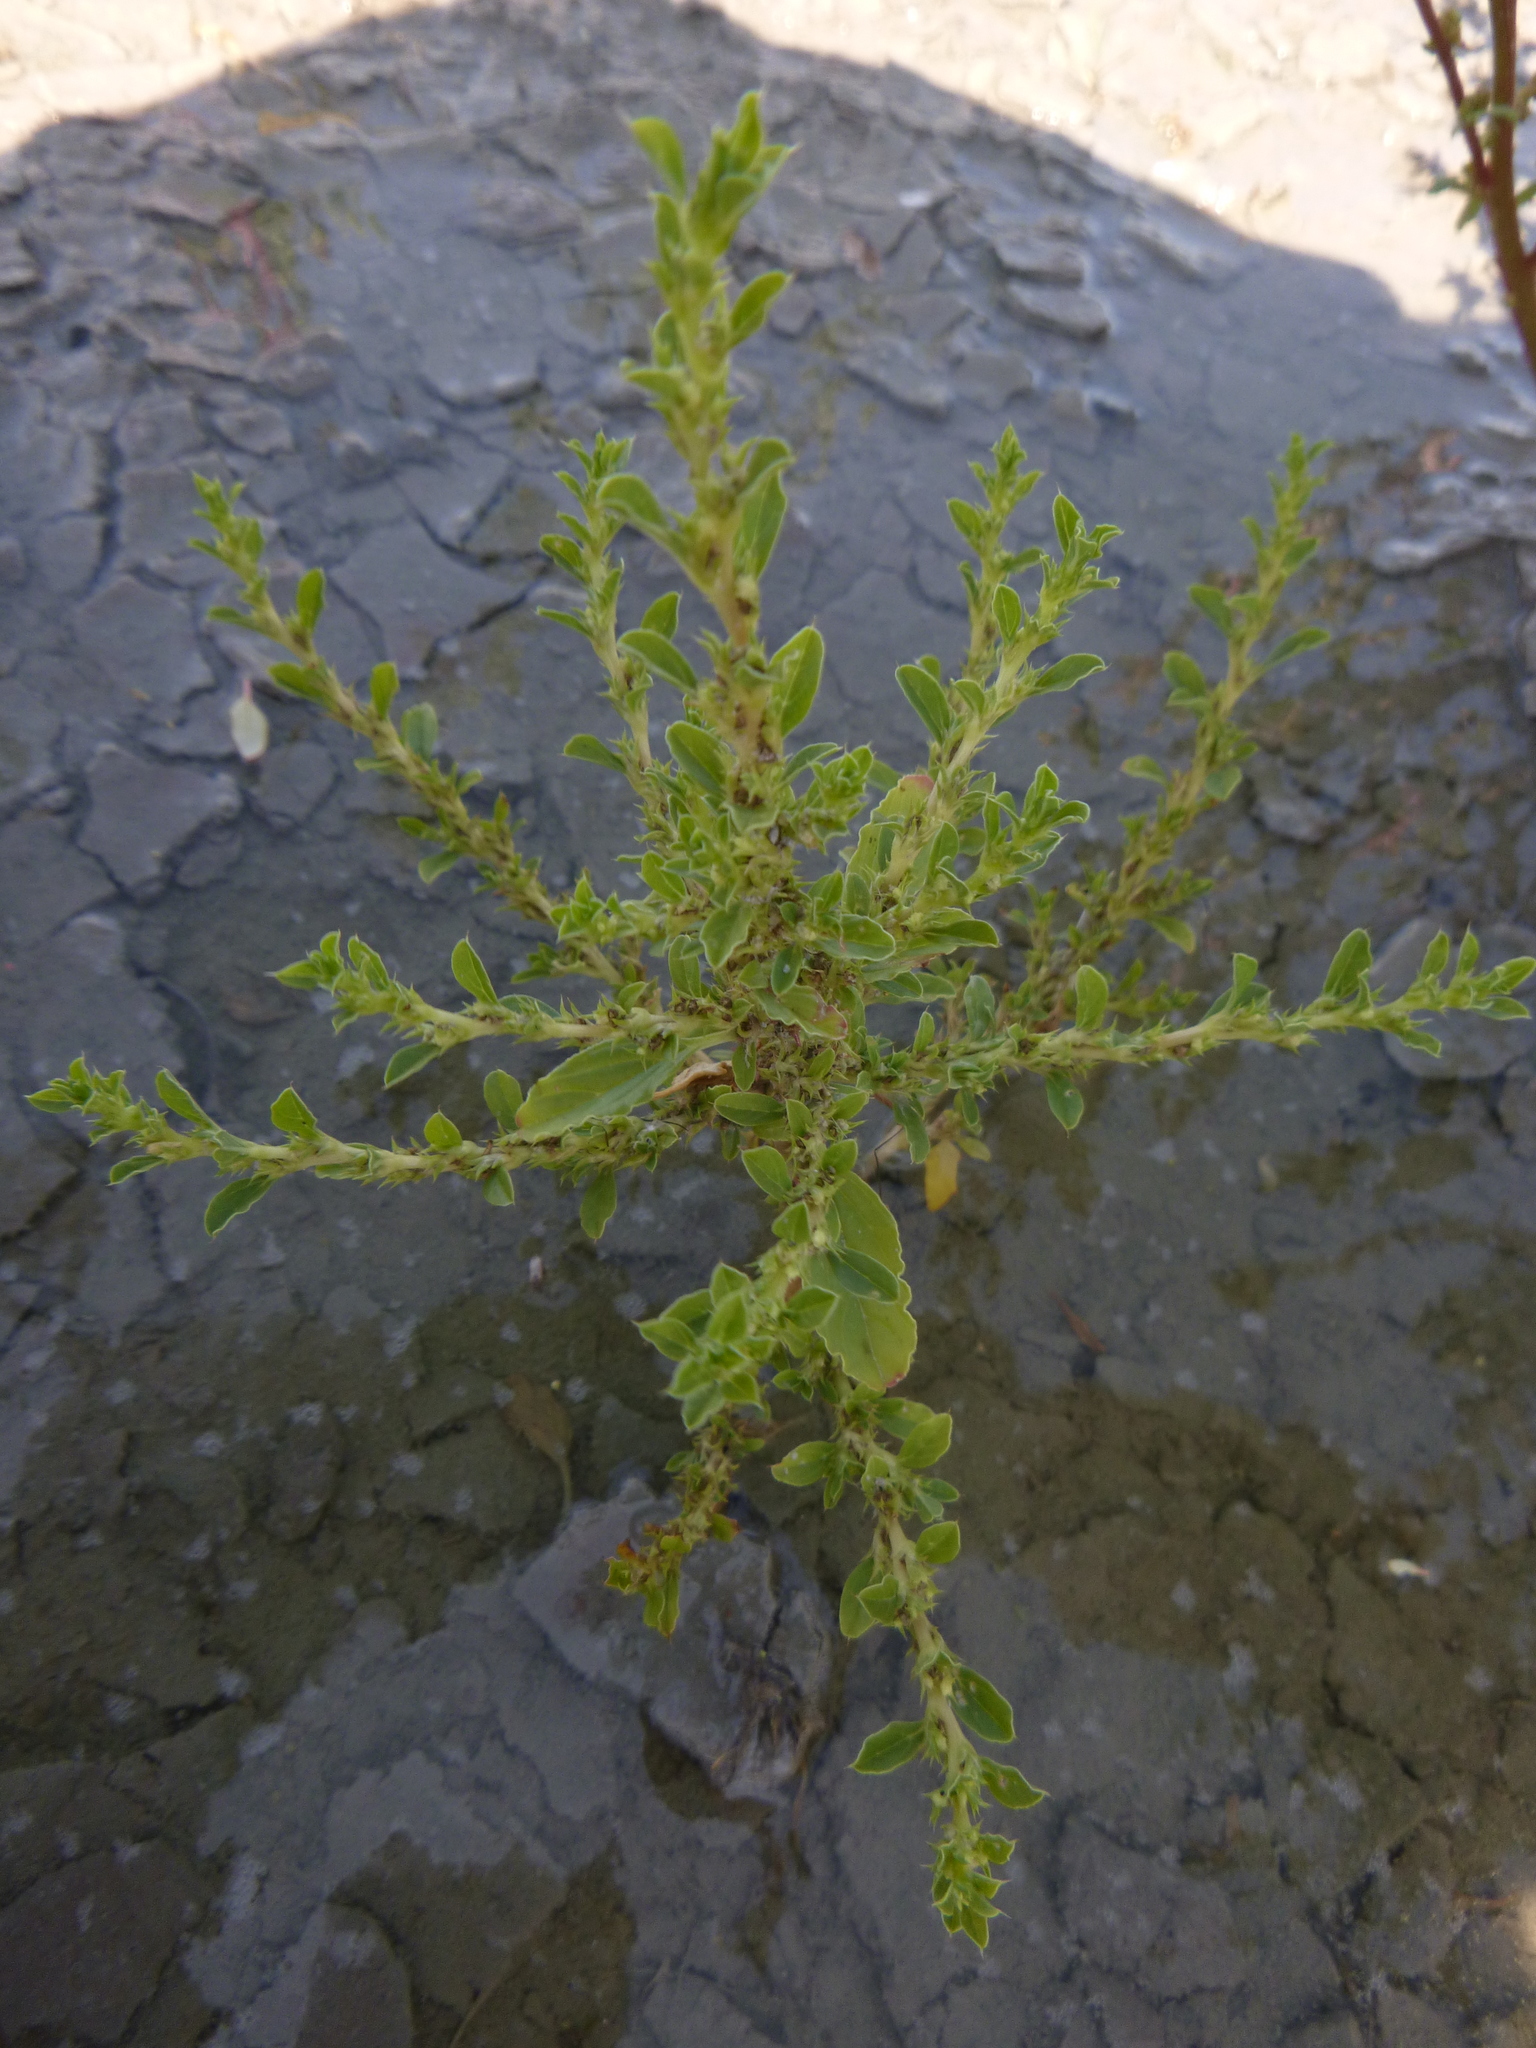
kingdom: Plantae
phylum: Tracheophyta
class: Magnoliopsida
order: Caryophyllales
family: Amaranthaceae
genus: Amaranthus
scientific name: Amaranthus albus
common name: White pigweed
